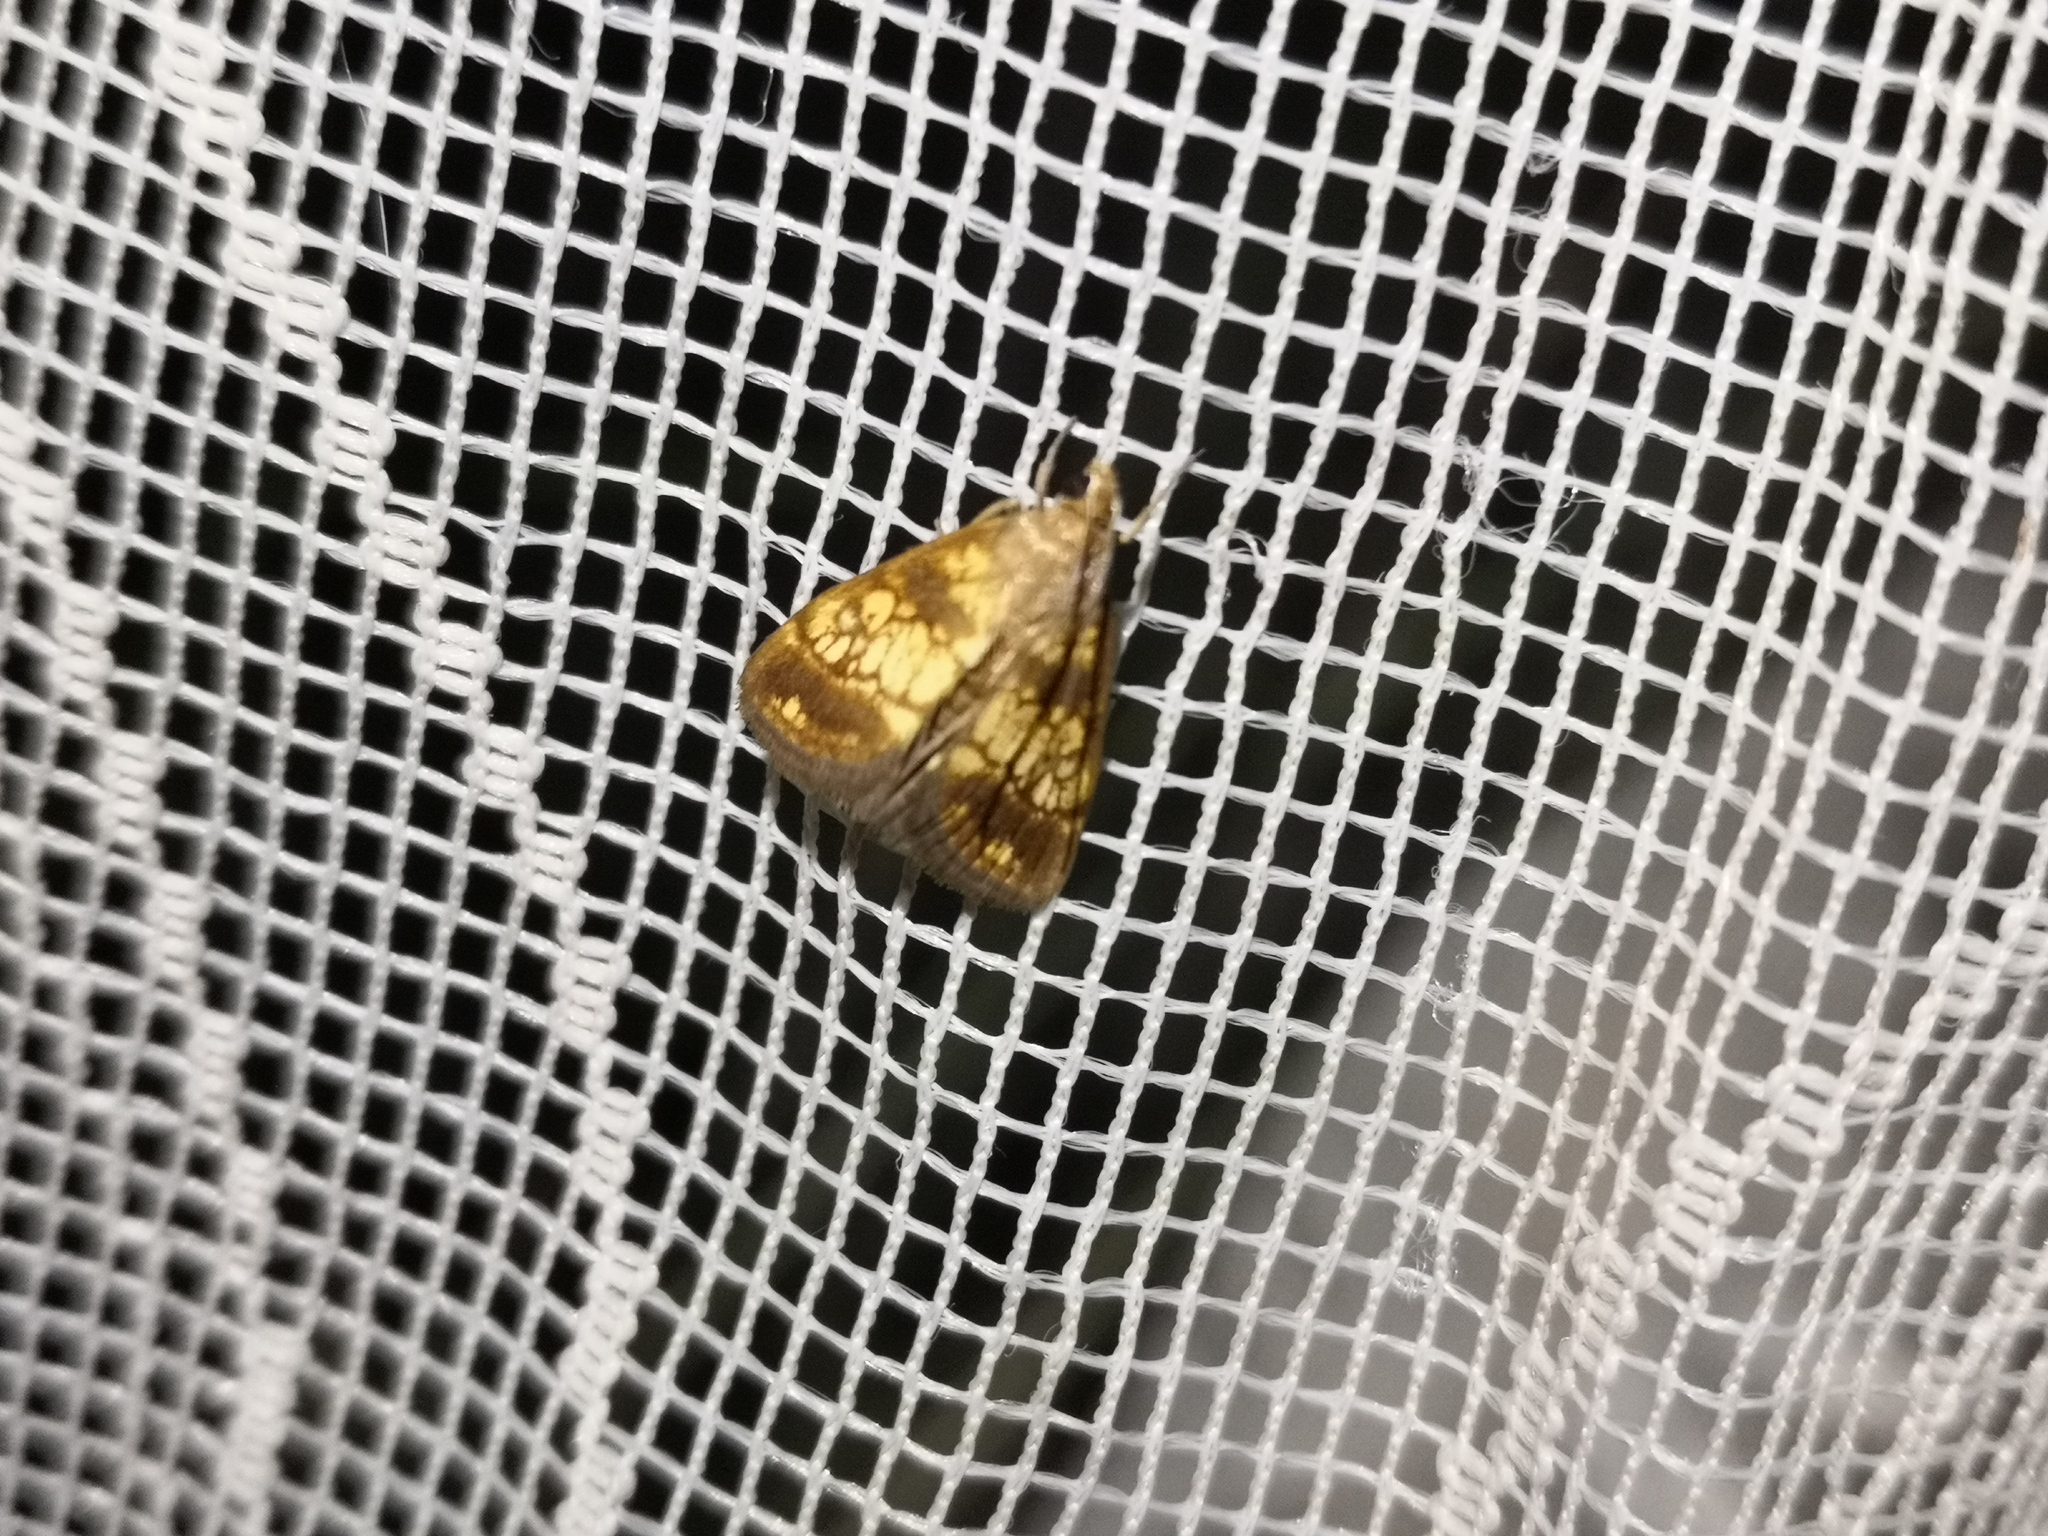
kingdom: Animalia
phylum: Arthropoda
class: Insecta
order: Lepidoptera
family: Crambidae
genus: Evergestis
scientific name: Evergestis politalis
